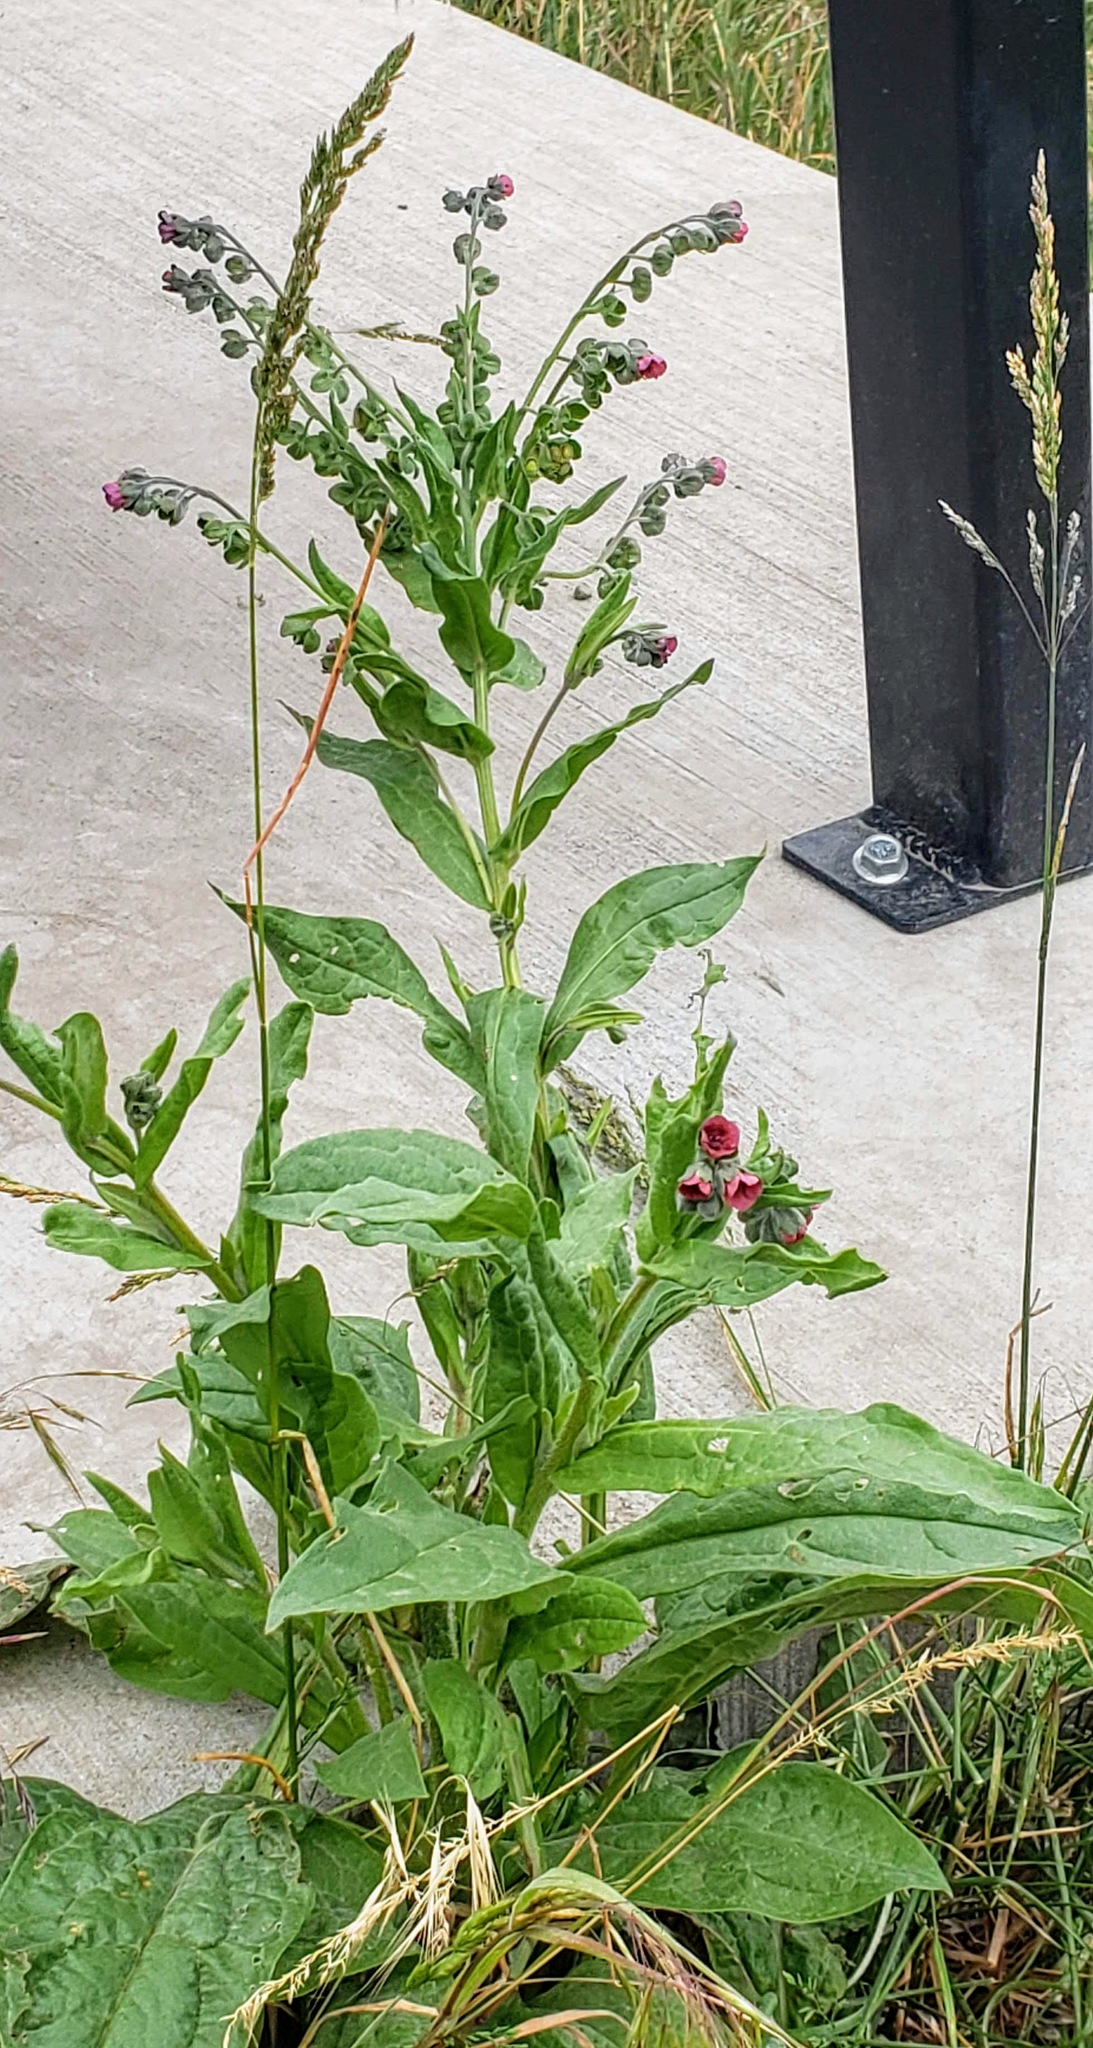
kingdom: Plantae
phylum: Tracheophyta
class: Magnoliopsida
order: Boraginales
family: Boraginaceae
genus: Cynoglossum
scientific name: Cynoglossum officinale
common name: Hound's-tongue
